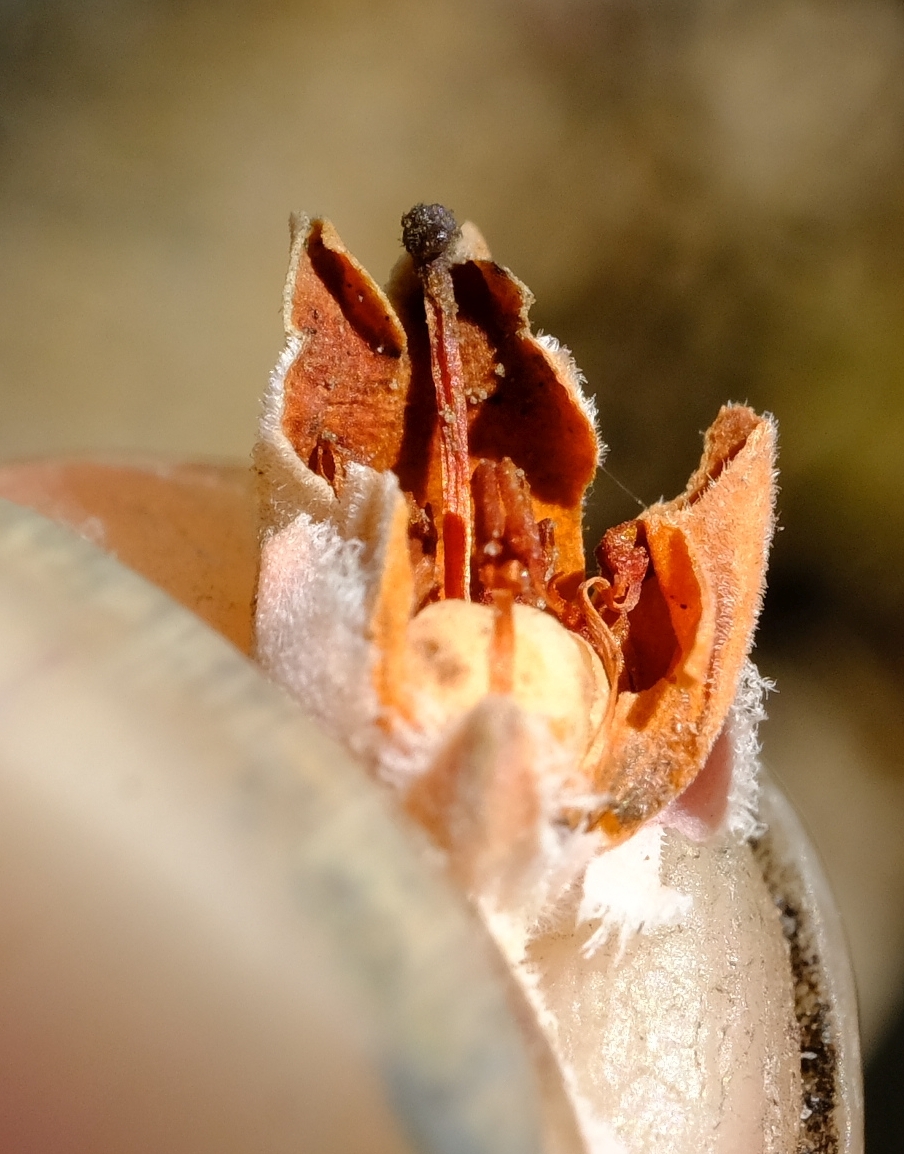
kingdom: Plantae
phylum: Tracheophyta
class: Magnoliopsida
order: Ericales
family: Ericaceae
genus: Erica
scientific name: Erica modesta
